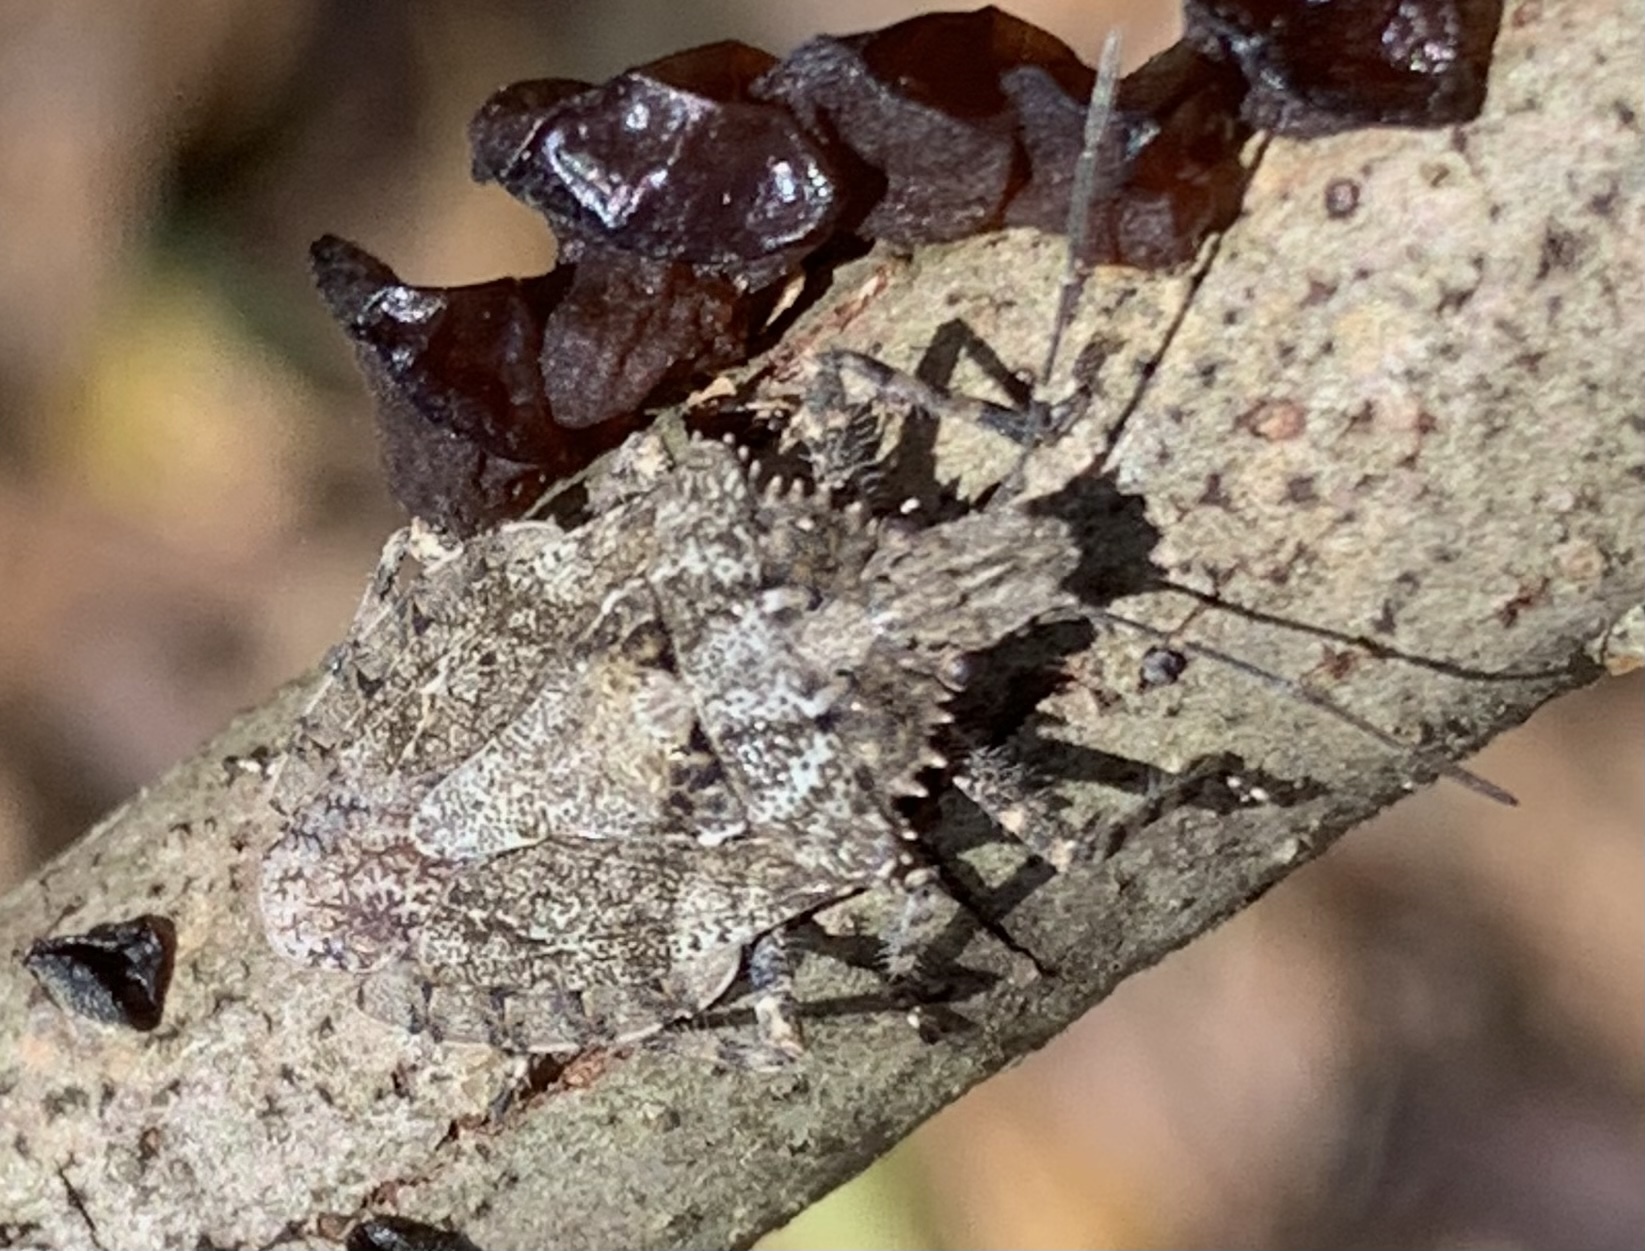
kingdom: Animalia
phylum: Arthropoda
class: Insecta
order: Hemiptera
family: Pentatomidae
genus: Brochymena
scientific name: Brochymena arborea
